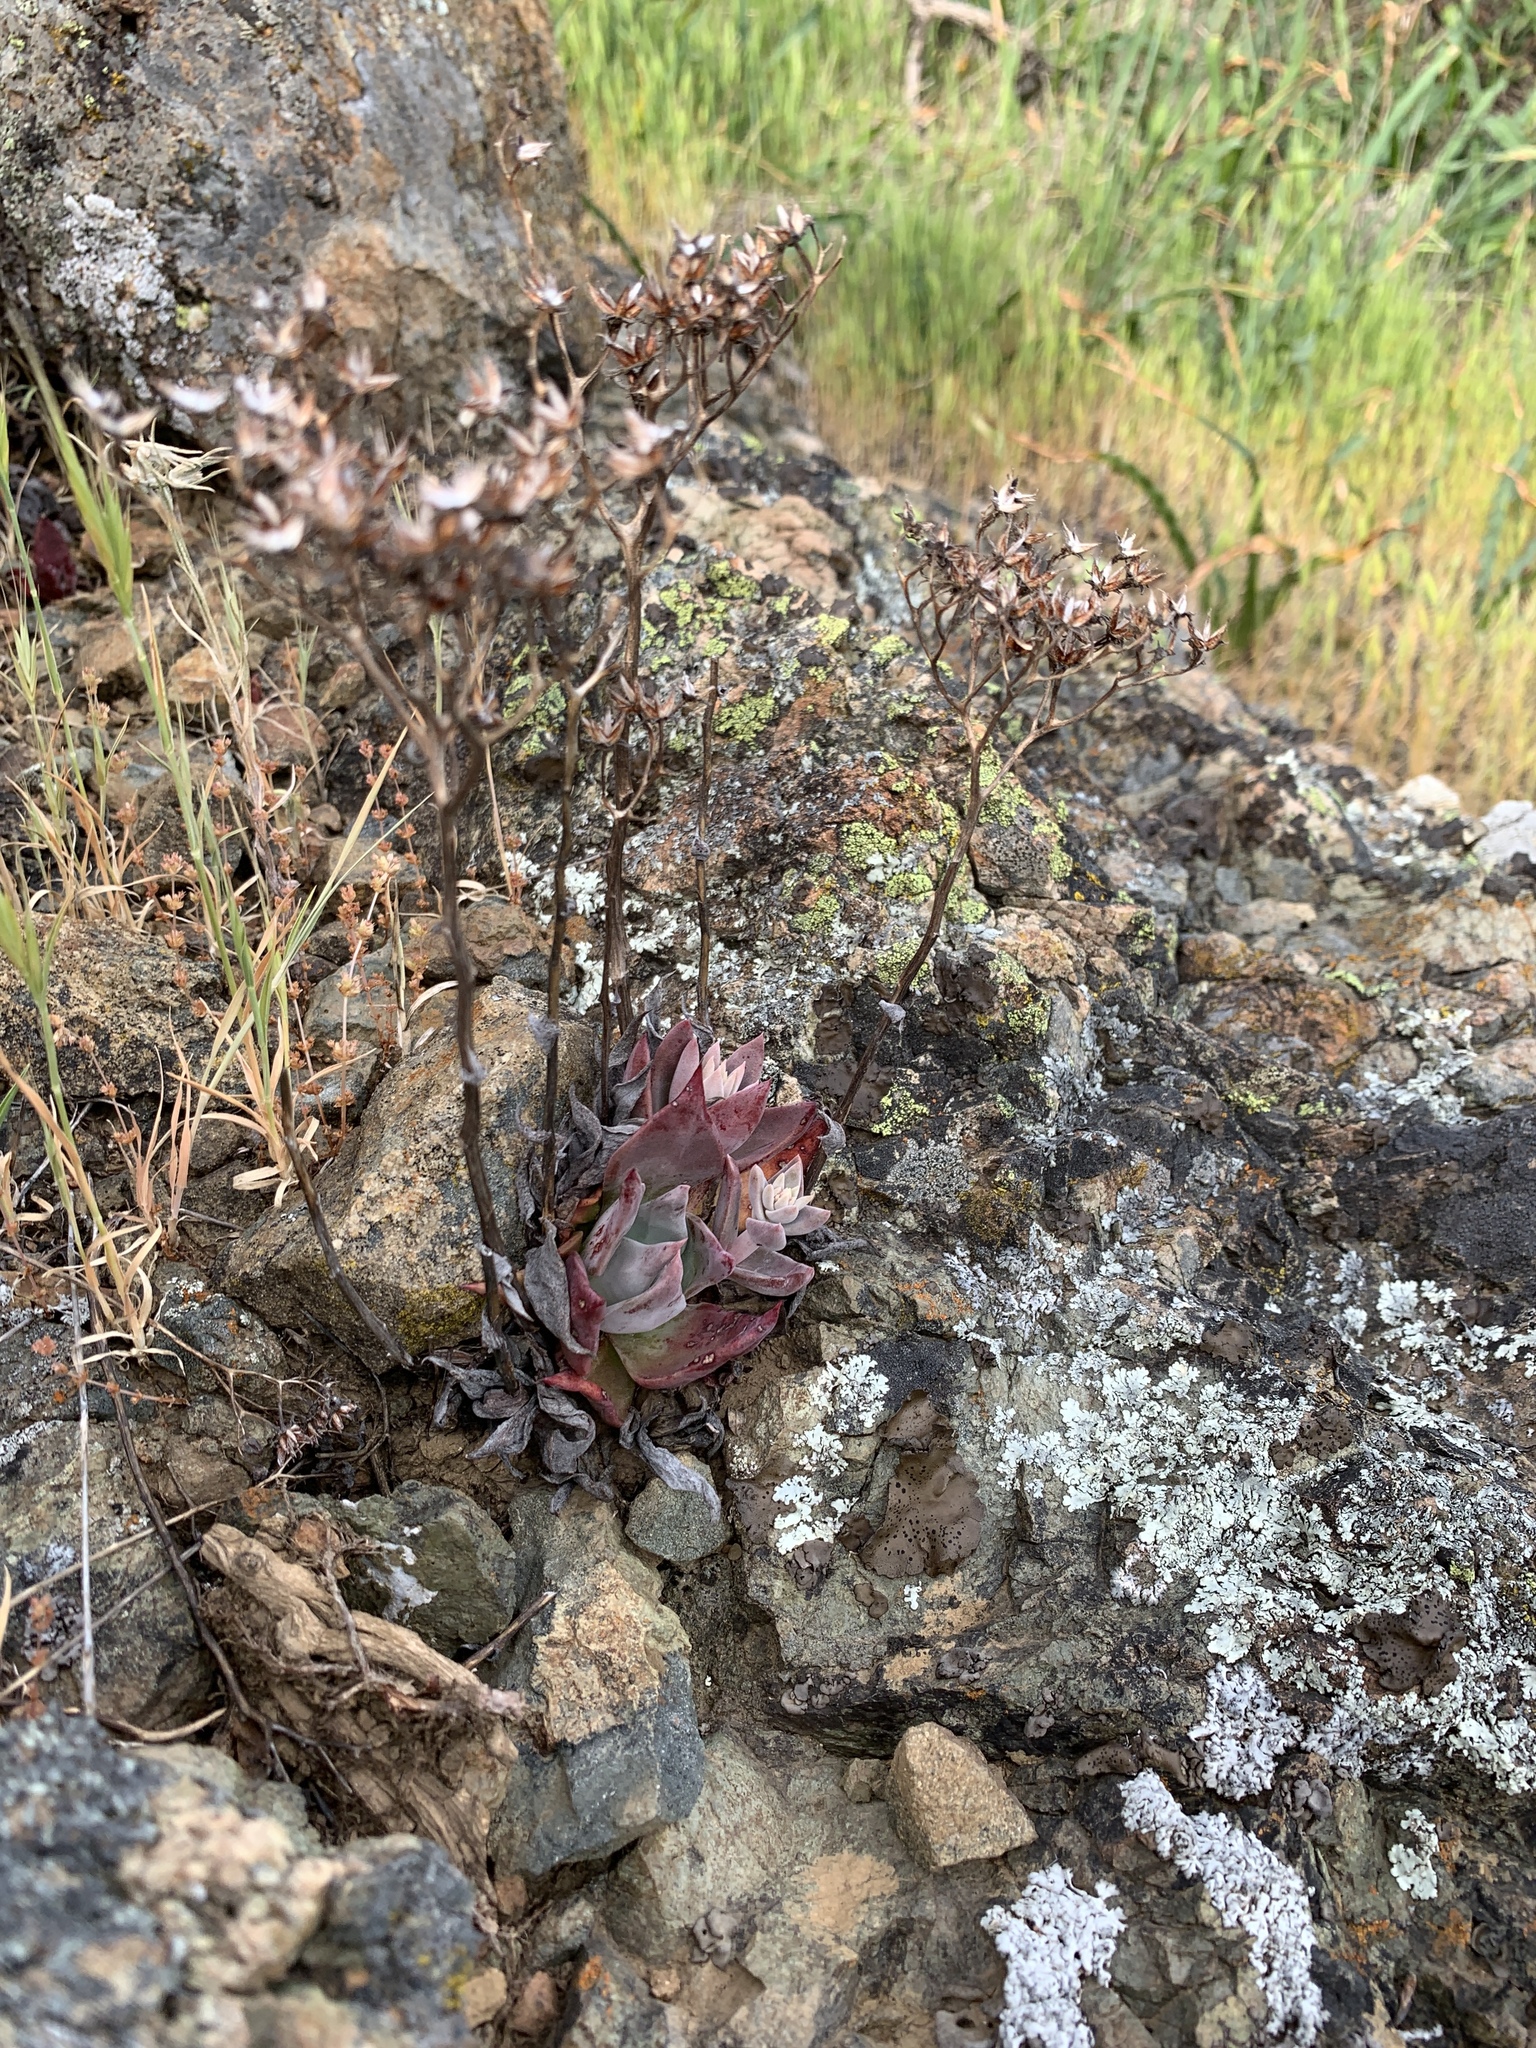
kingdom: Plantae
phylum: Tracheophyta
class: Magnoliopsida
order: Saxifragales
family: Crassulaceae
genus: Dudleya
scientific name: Dudleya cymosa
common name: Canyon dudleya
